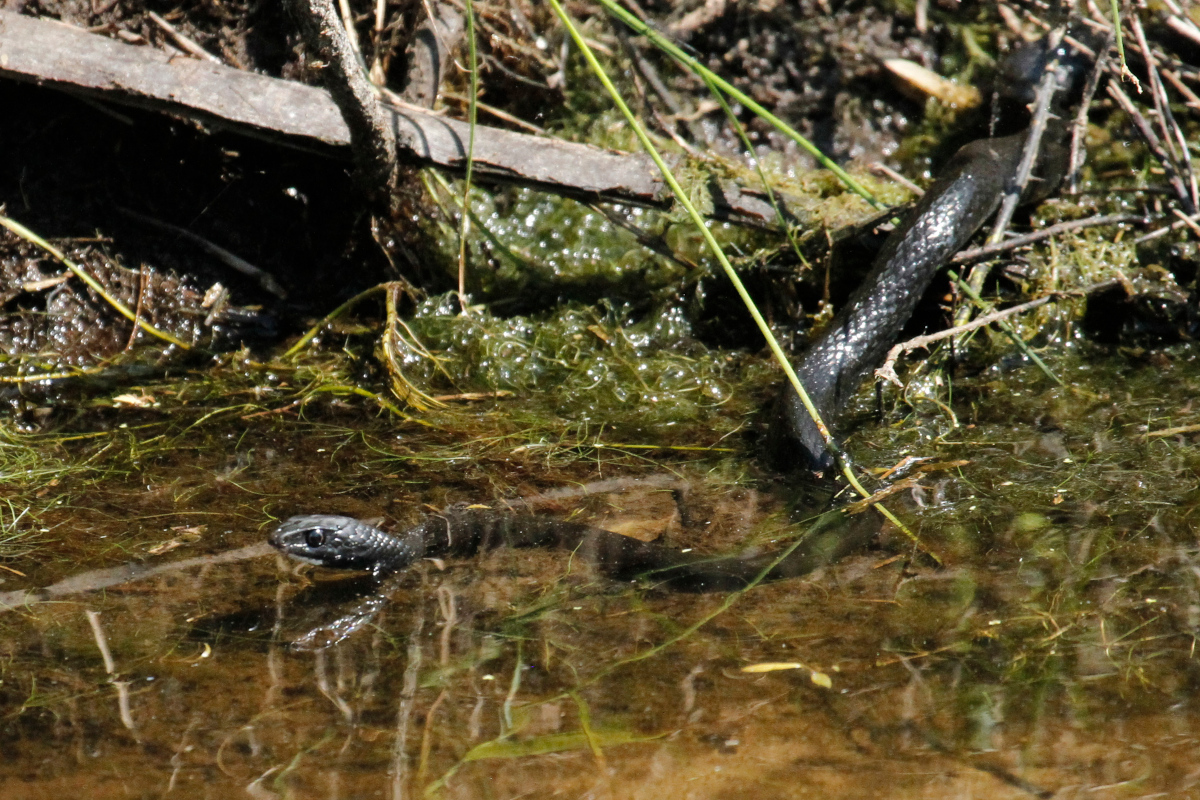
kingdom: Animalia
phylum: Chordata
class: Squamata
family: Colubridae
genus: Coluber
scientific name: Coluber constrictor
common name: Eastern racer
